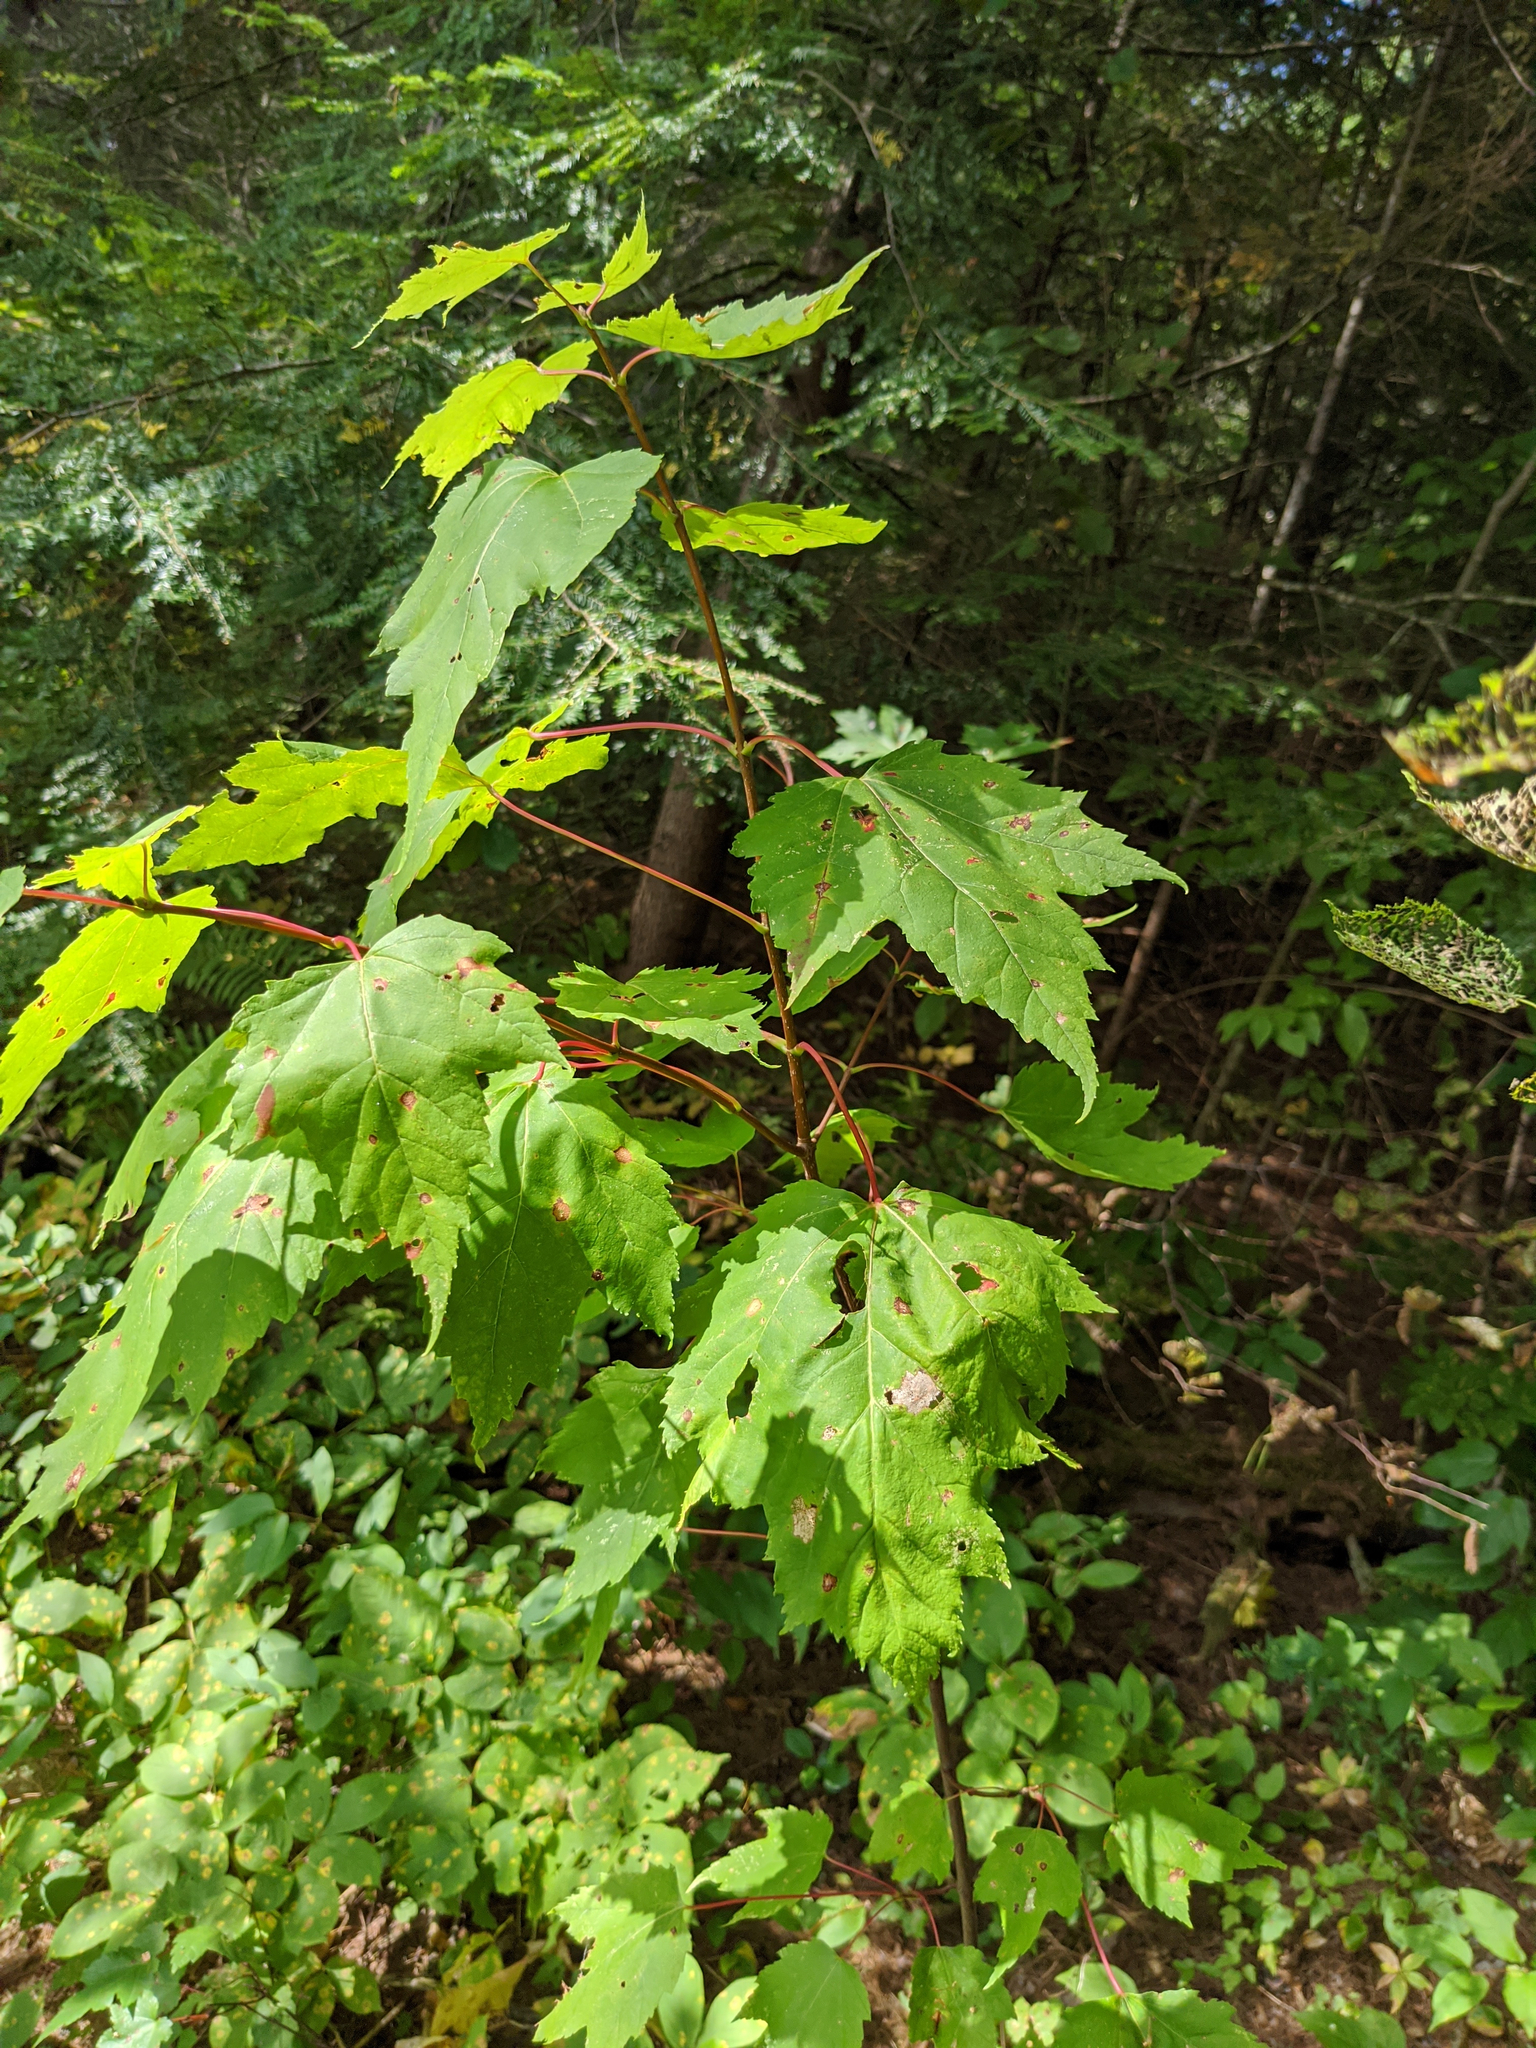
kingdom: Plantae
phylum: Tracheophyta
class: Magnoliopsida
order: Sapindales
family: Sapindaceae
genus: Acer
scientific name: Acer rubrum
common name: Red maple
